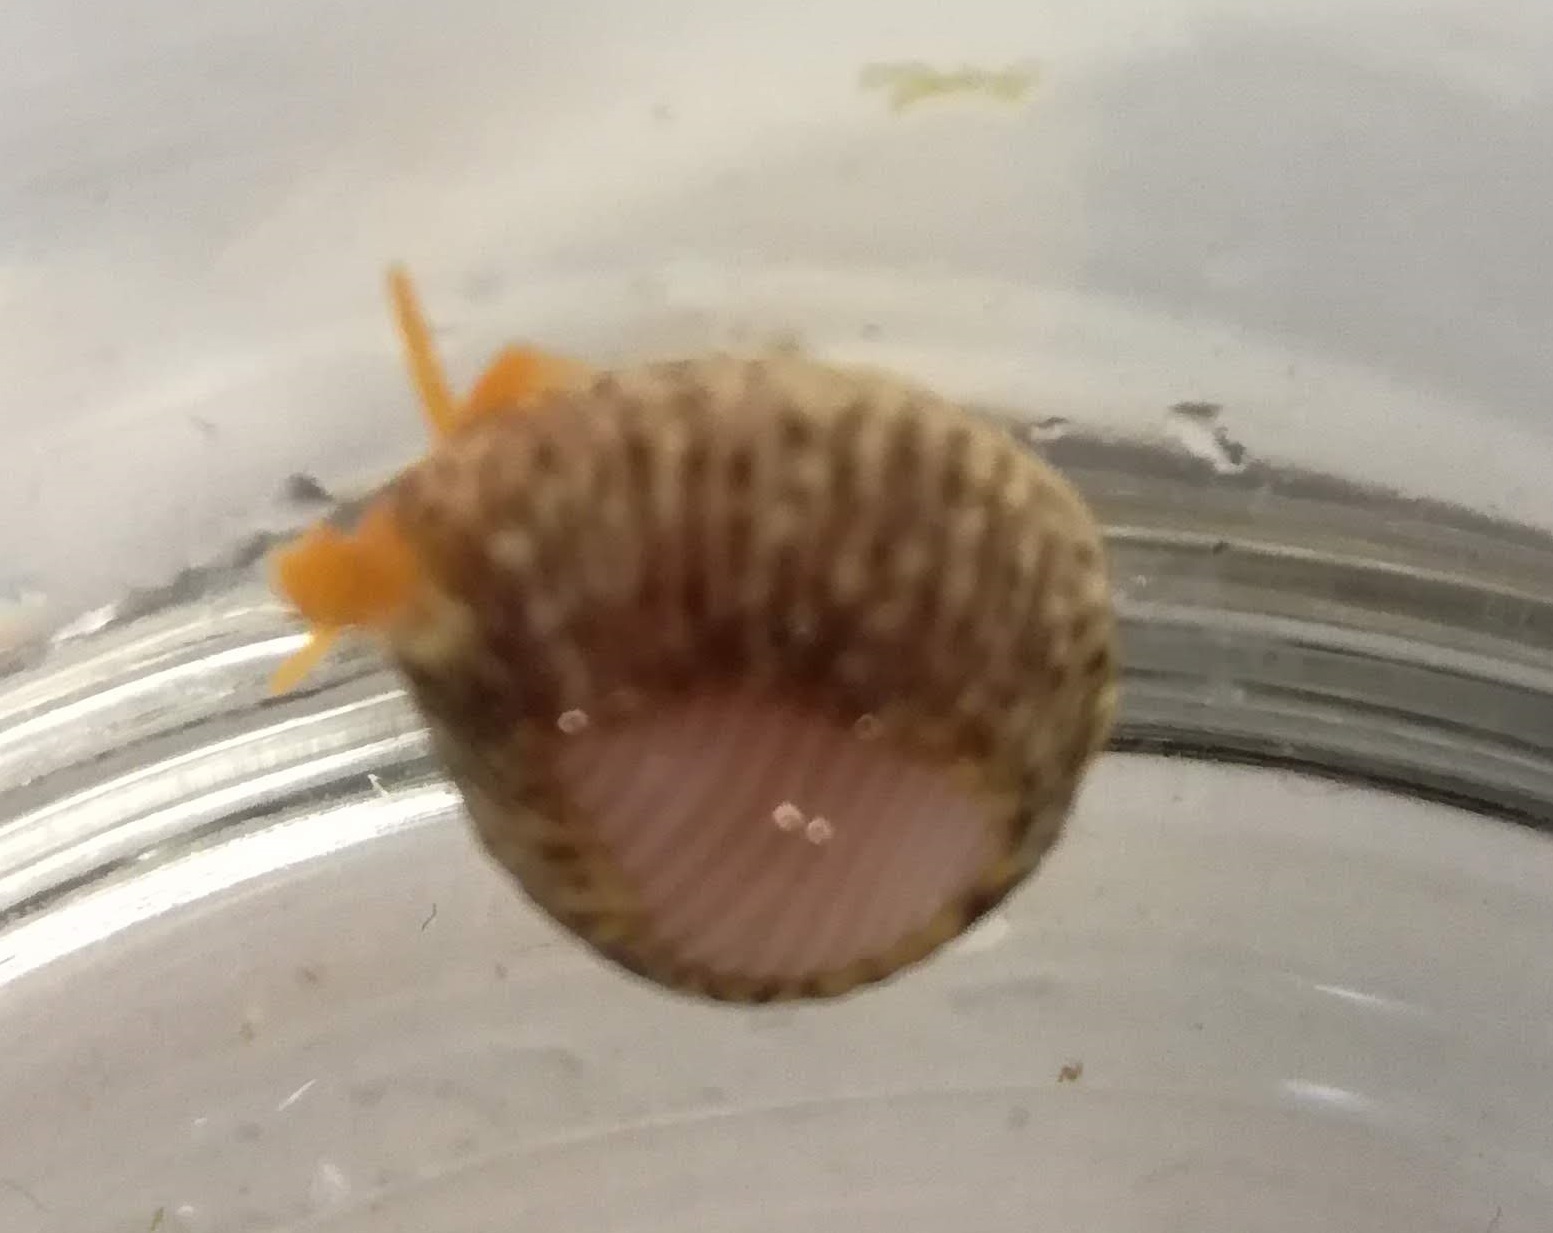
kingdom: Animalia
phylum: Mollusca
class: Gastropoda
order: Littorinimorpha
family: Triviidae
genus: Trivia
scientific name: Trivia arctica
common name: Arctic cowrie
